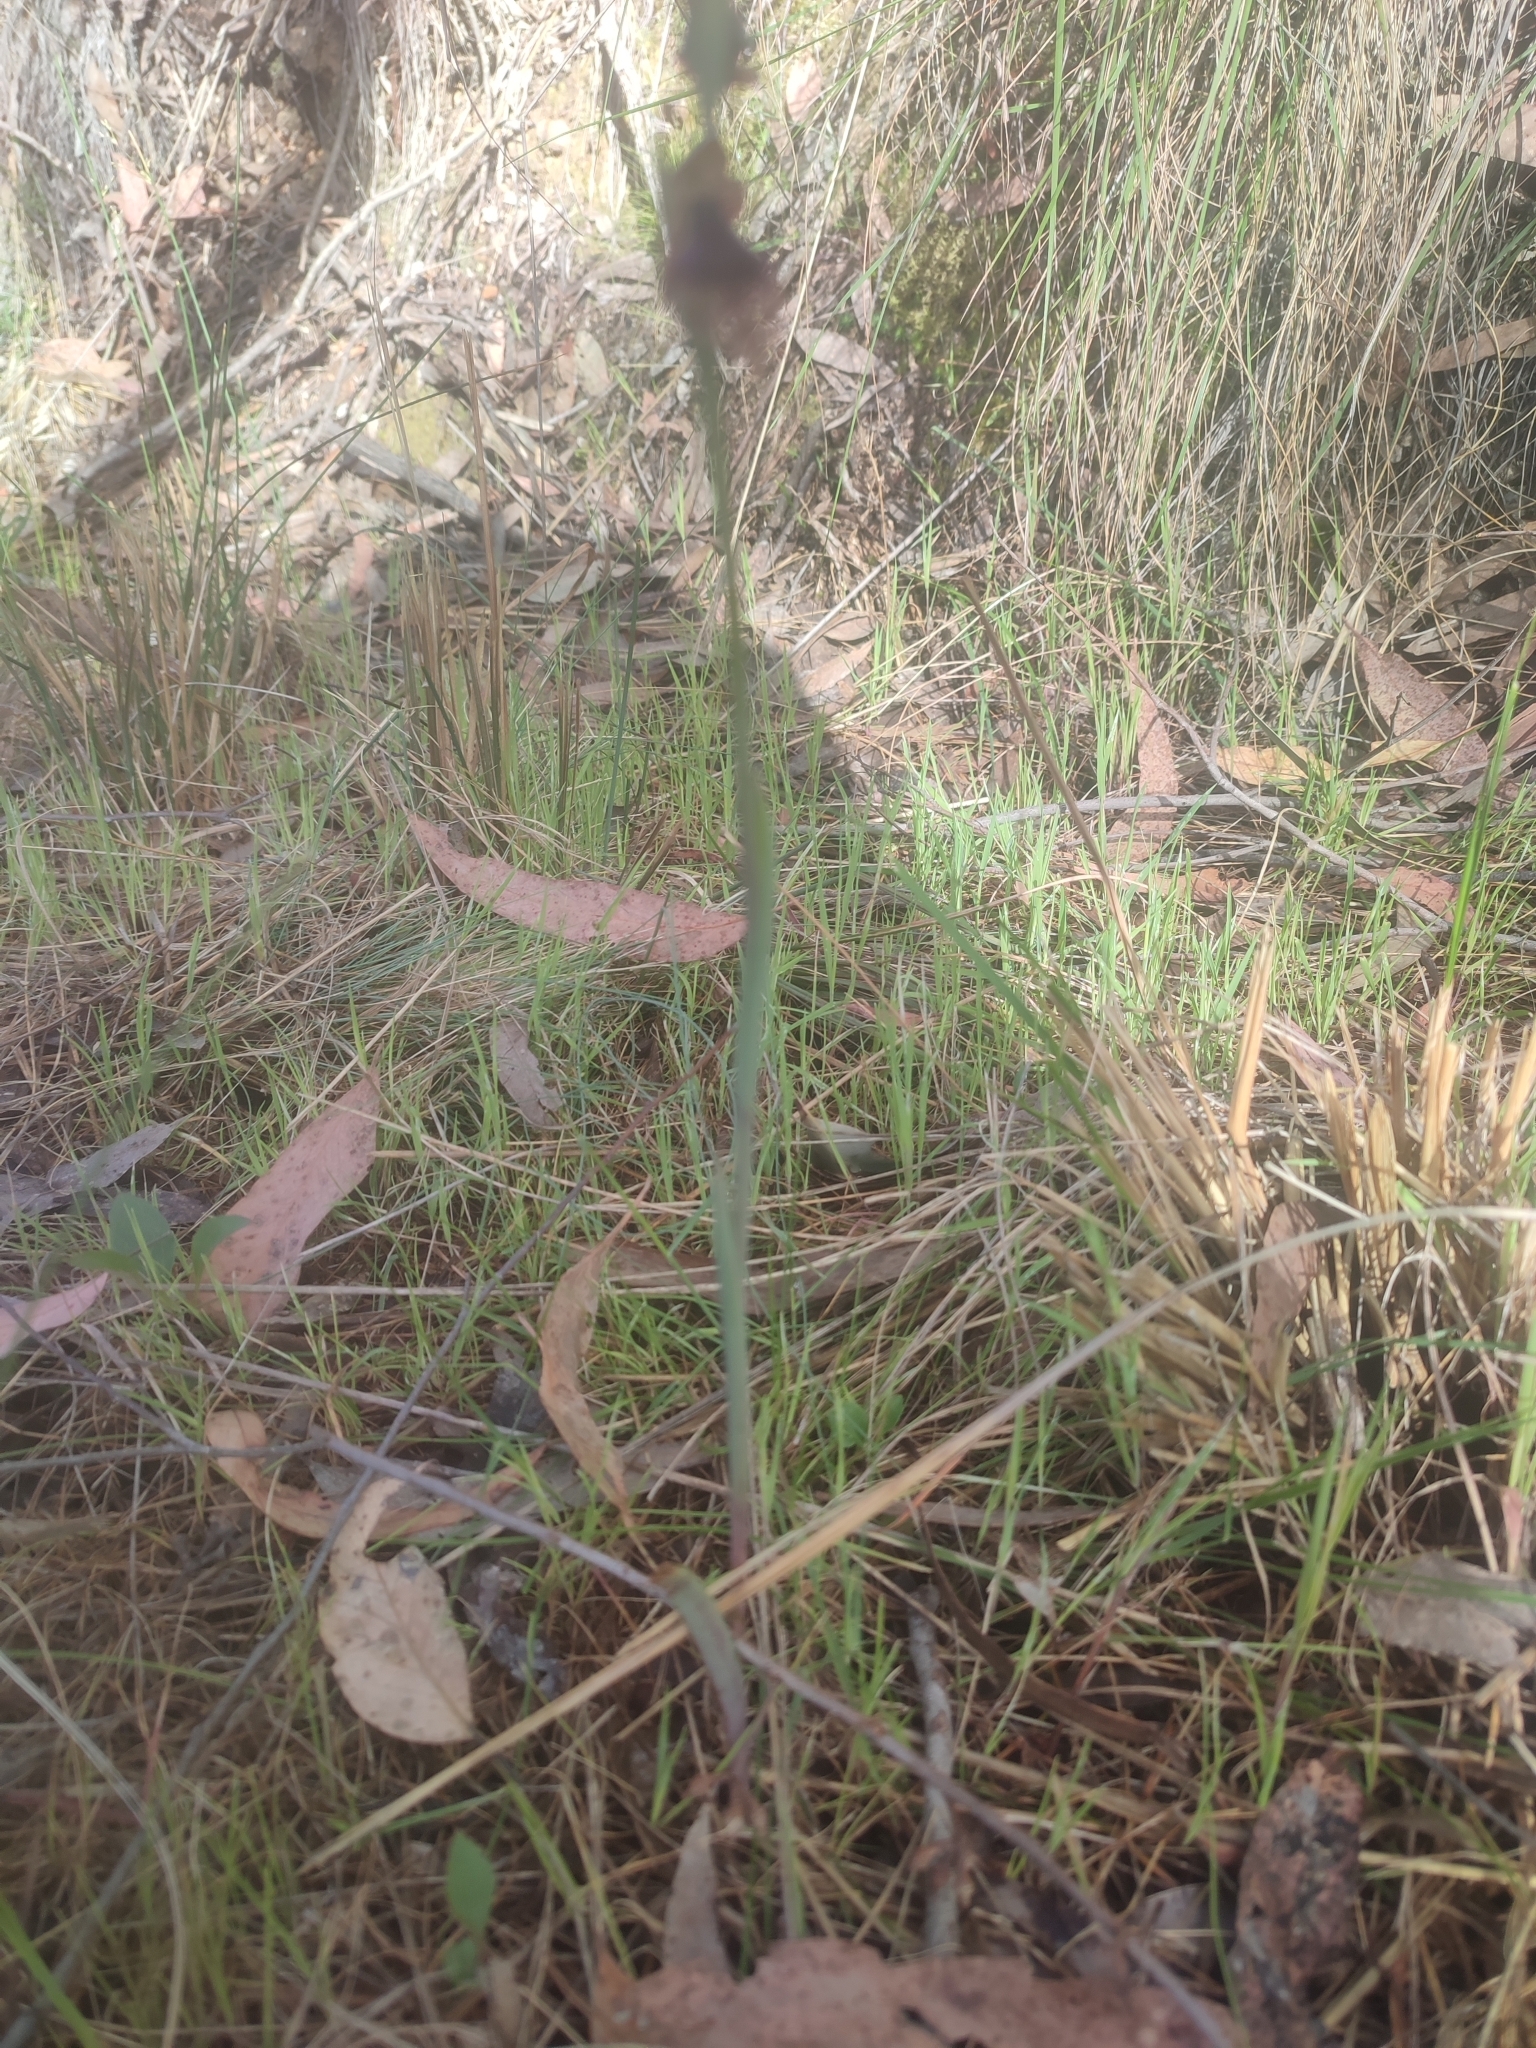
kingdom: Plantae
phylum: Tracheophyta
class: Liliopsida
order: Asparagales
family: Orchidaceae
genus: Calochilus
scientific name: Calochilus robertsonii
